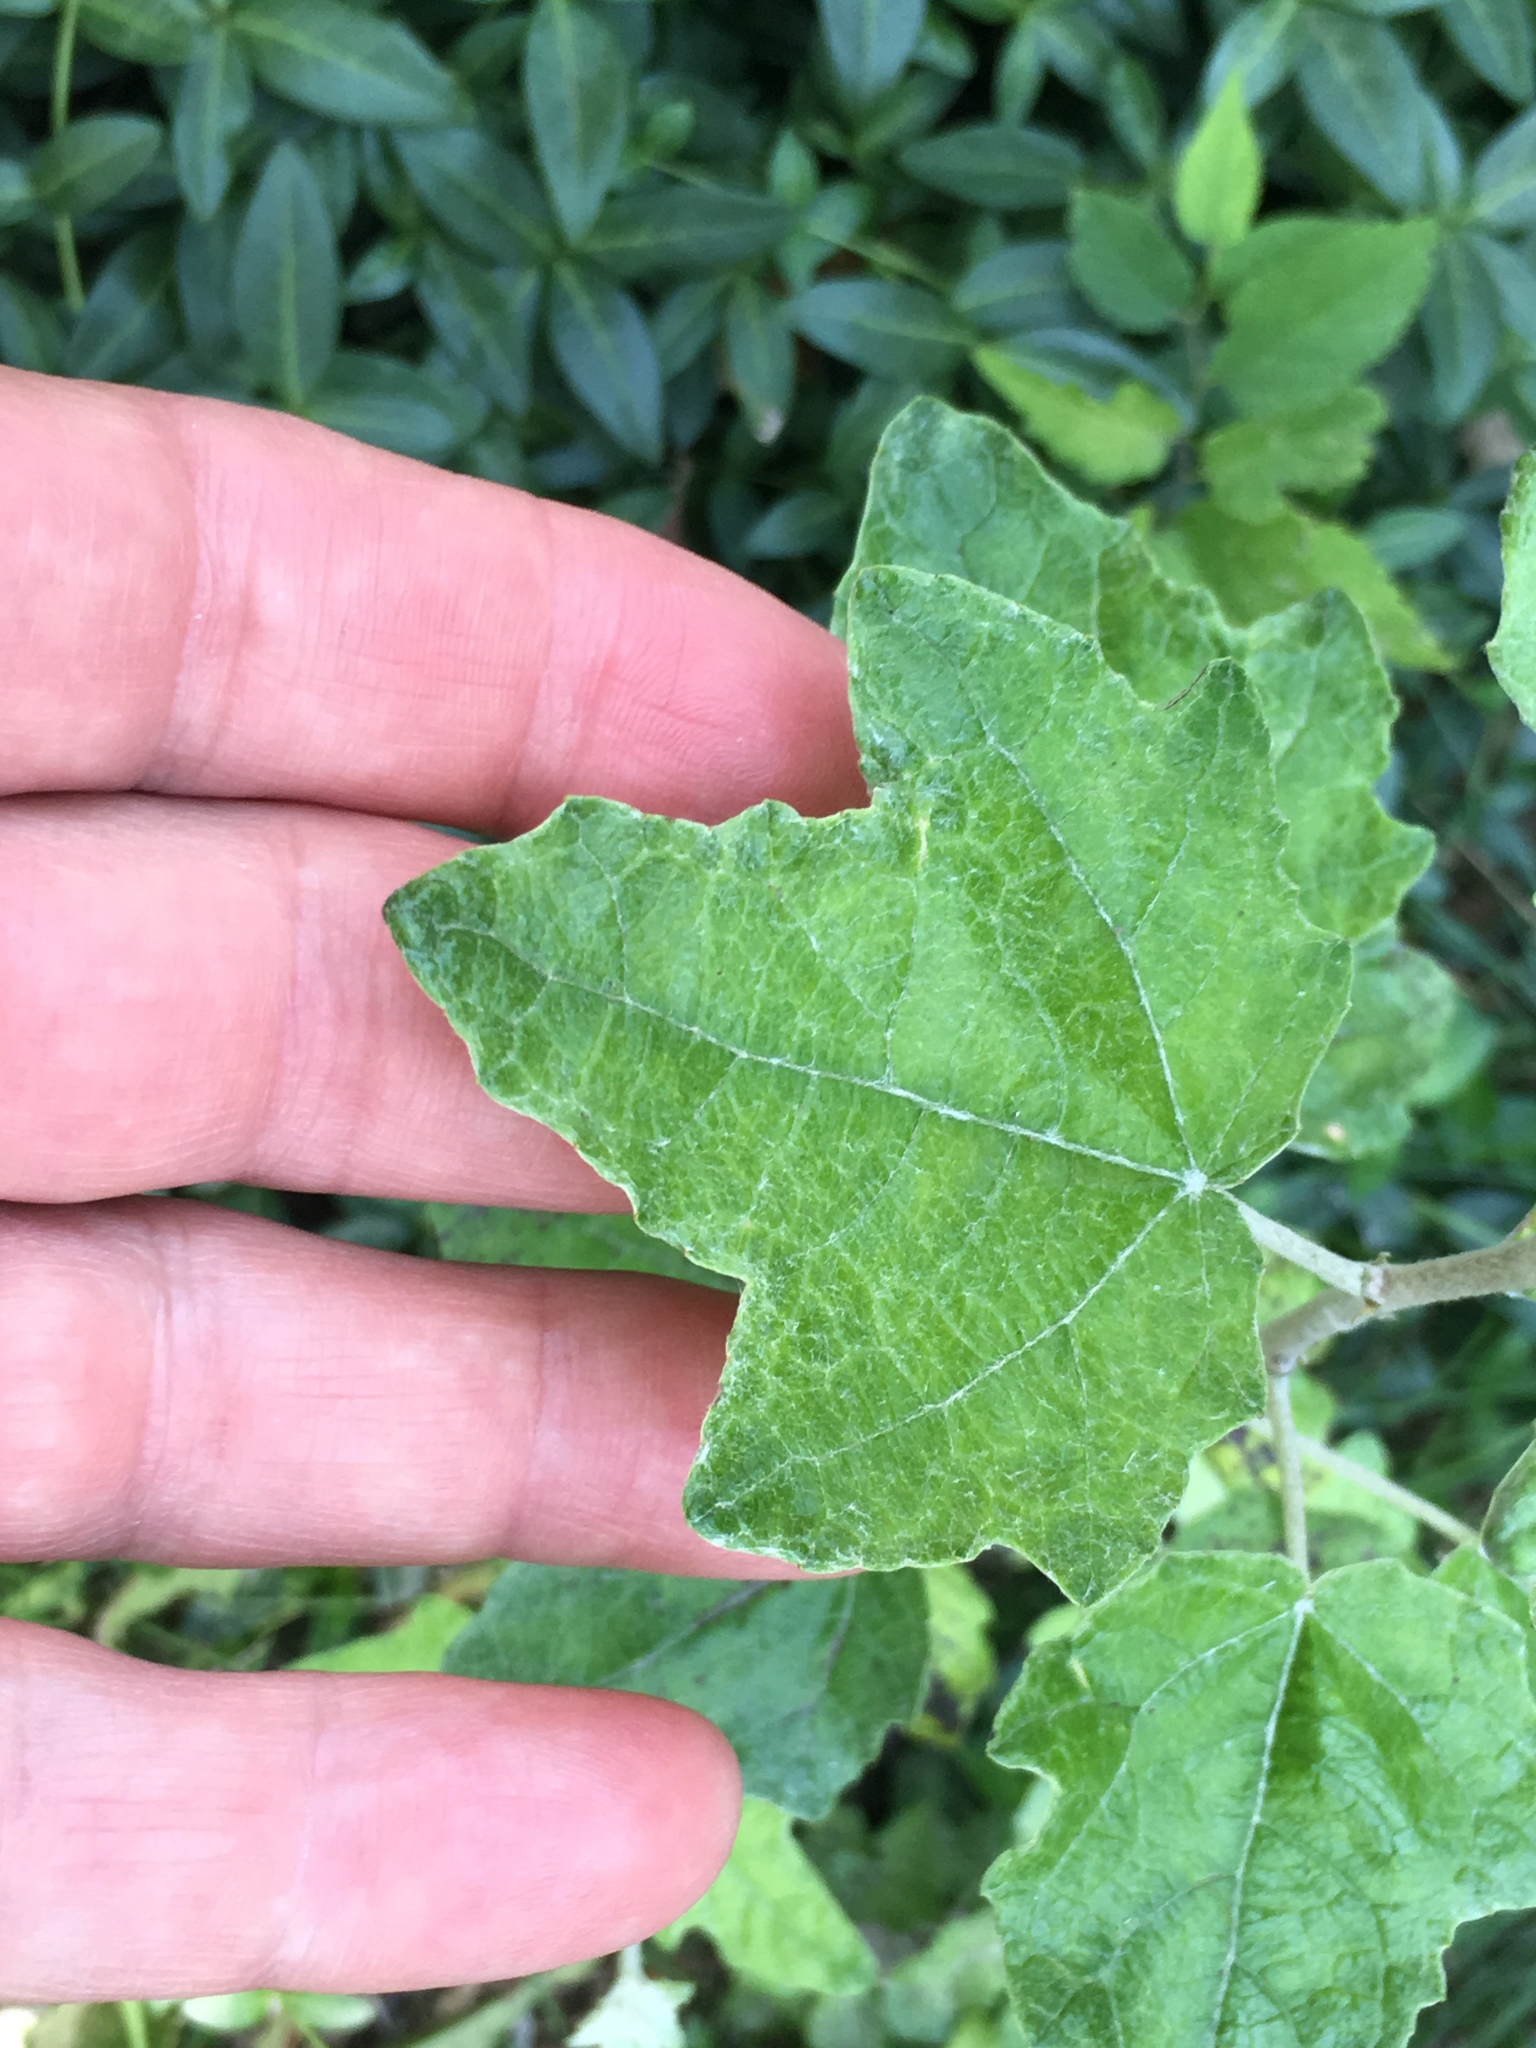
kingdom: Plantae
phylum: Tracheophyta
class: Magnoliopsida
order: Malpighiales
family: Salicaceae
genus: Populus
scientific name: Populus alba
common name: White poplar
